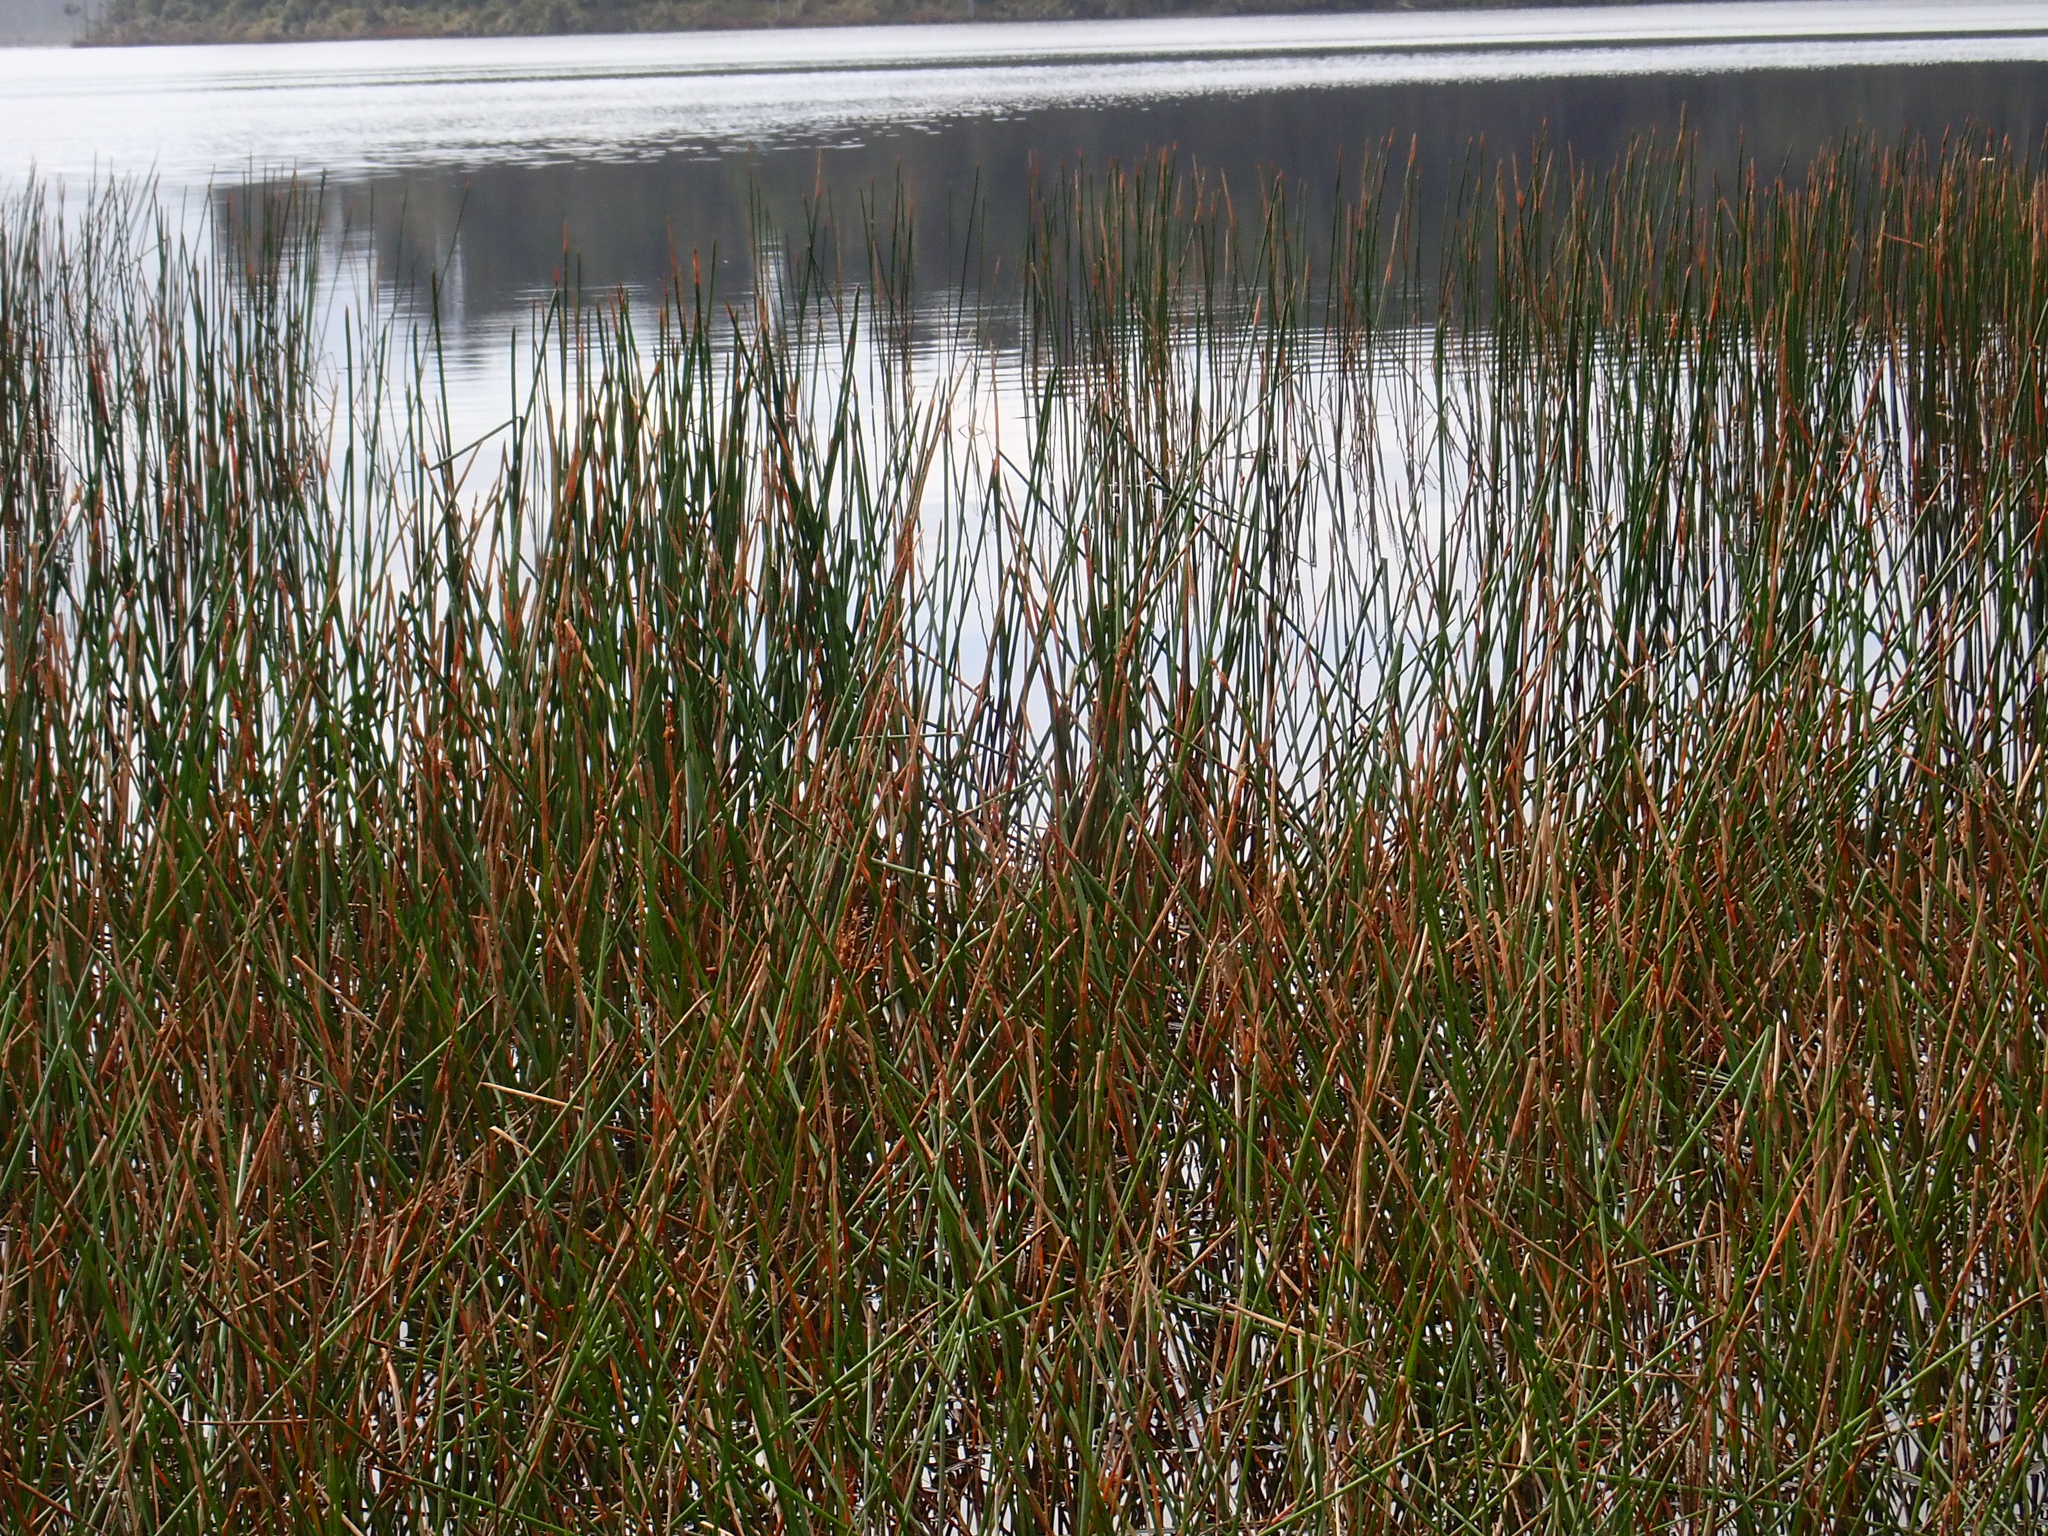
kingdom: Plantae
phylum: Tracheophyta
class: Liliopsida
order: Poales
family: Cyperaceae
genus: Eleocharis
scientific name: Eleocharis sphacelata
